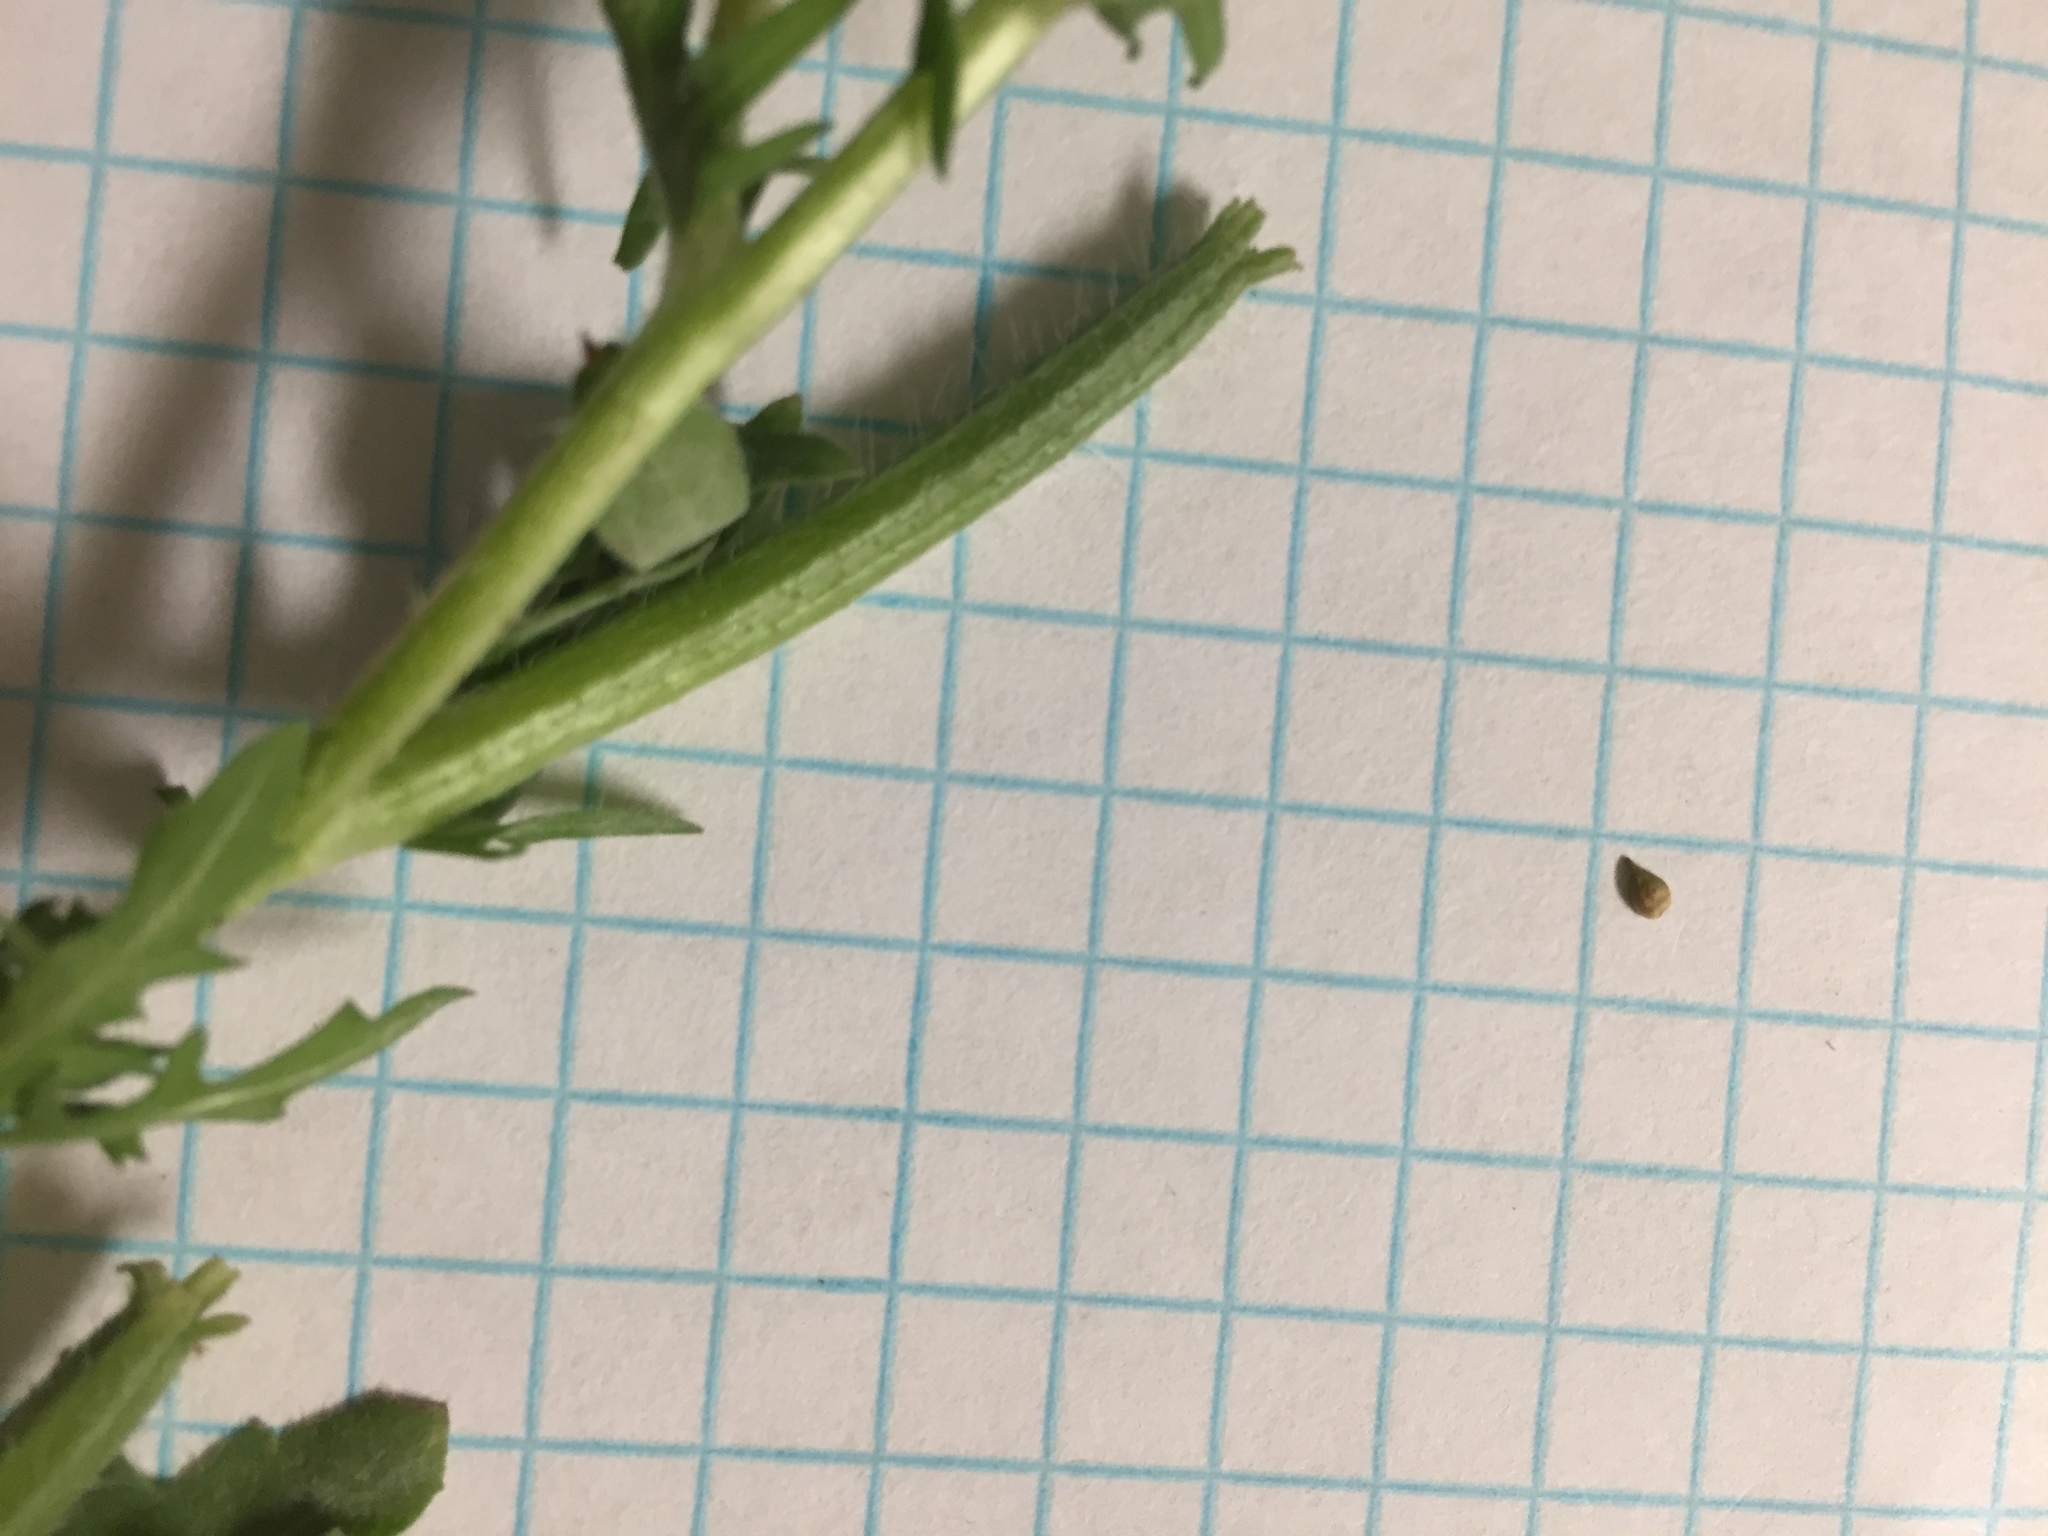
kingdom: Plantae
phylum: Tracheophyta
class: Magnoliopsida
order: Myrtales
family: Onagraceae
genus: Oenothera
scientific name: Oenothera laciniata
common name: Cut-leaved evening-primrose
